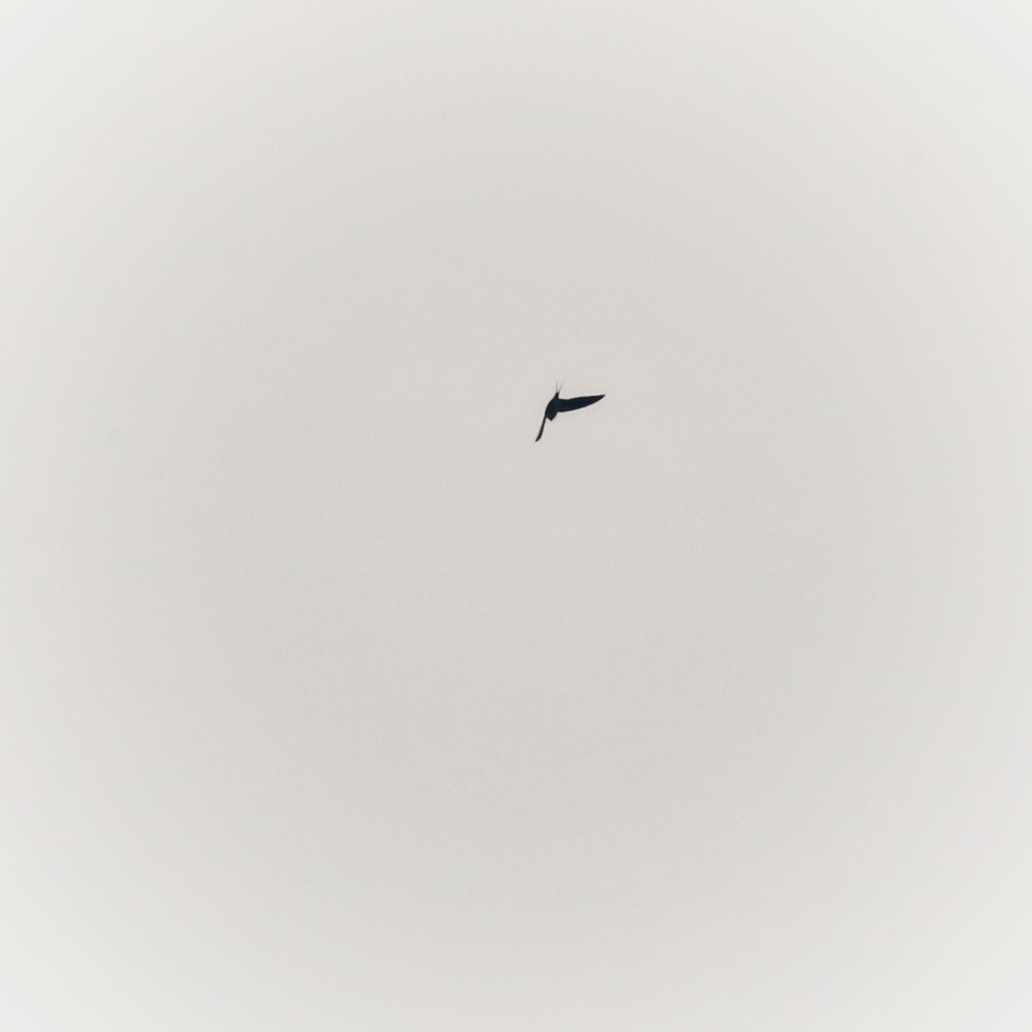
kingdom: Animalia
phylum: Chordata
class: Aves
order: Passeriformes
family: Hirundinidae
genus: Hirundo
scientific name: Hirundo rustica
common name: Barn swallow
